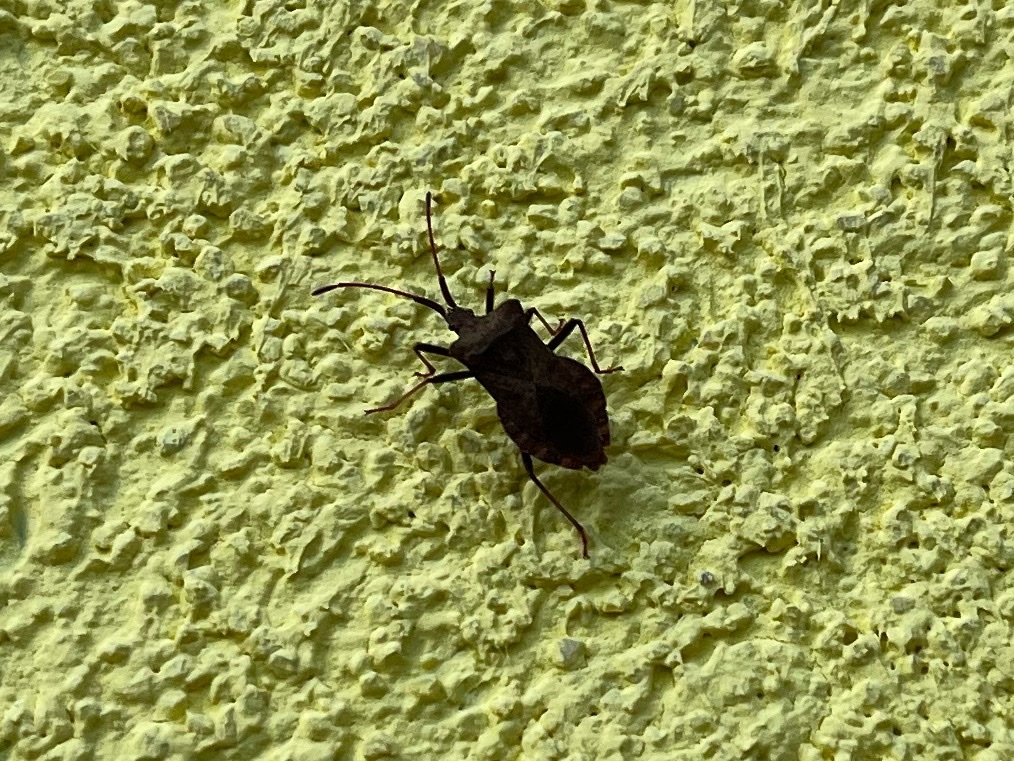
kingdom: Animalia
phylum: Arthropoda
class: Insecta
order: Hemiptera
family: Coreidae
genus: Coreus
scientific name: Coreus marginatus
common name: Dock bug
